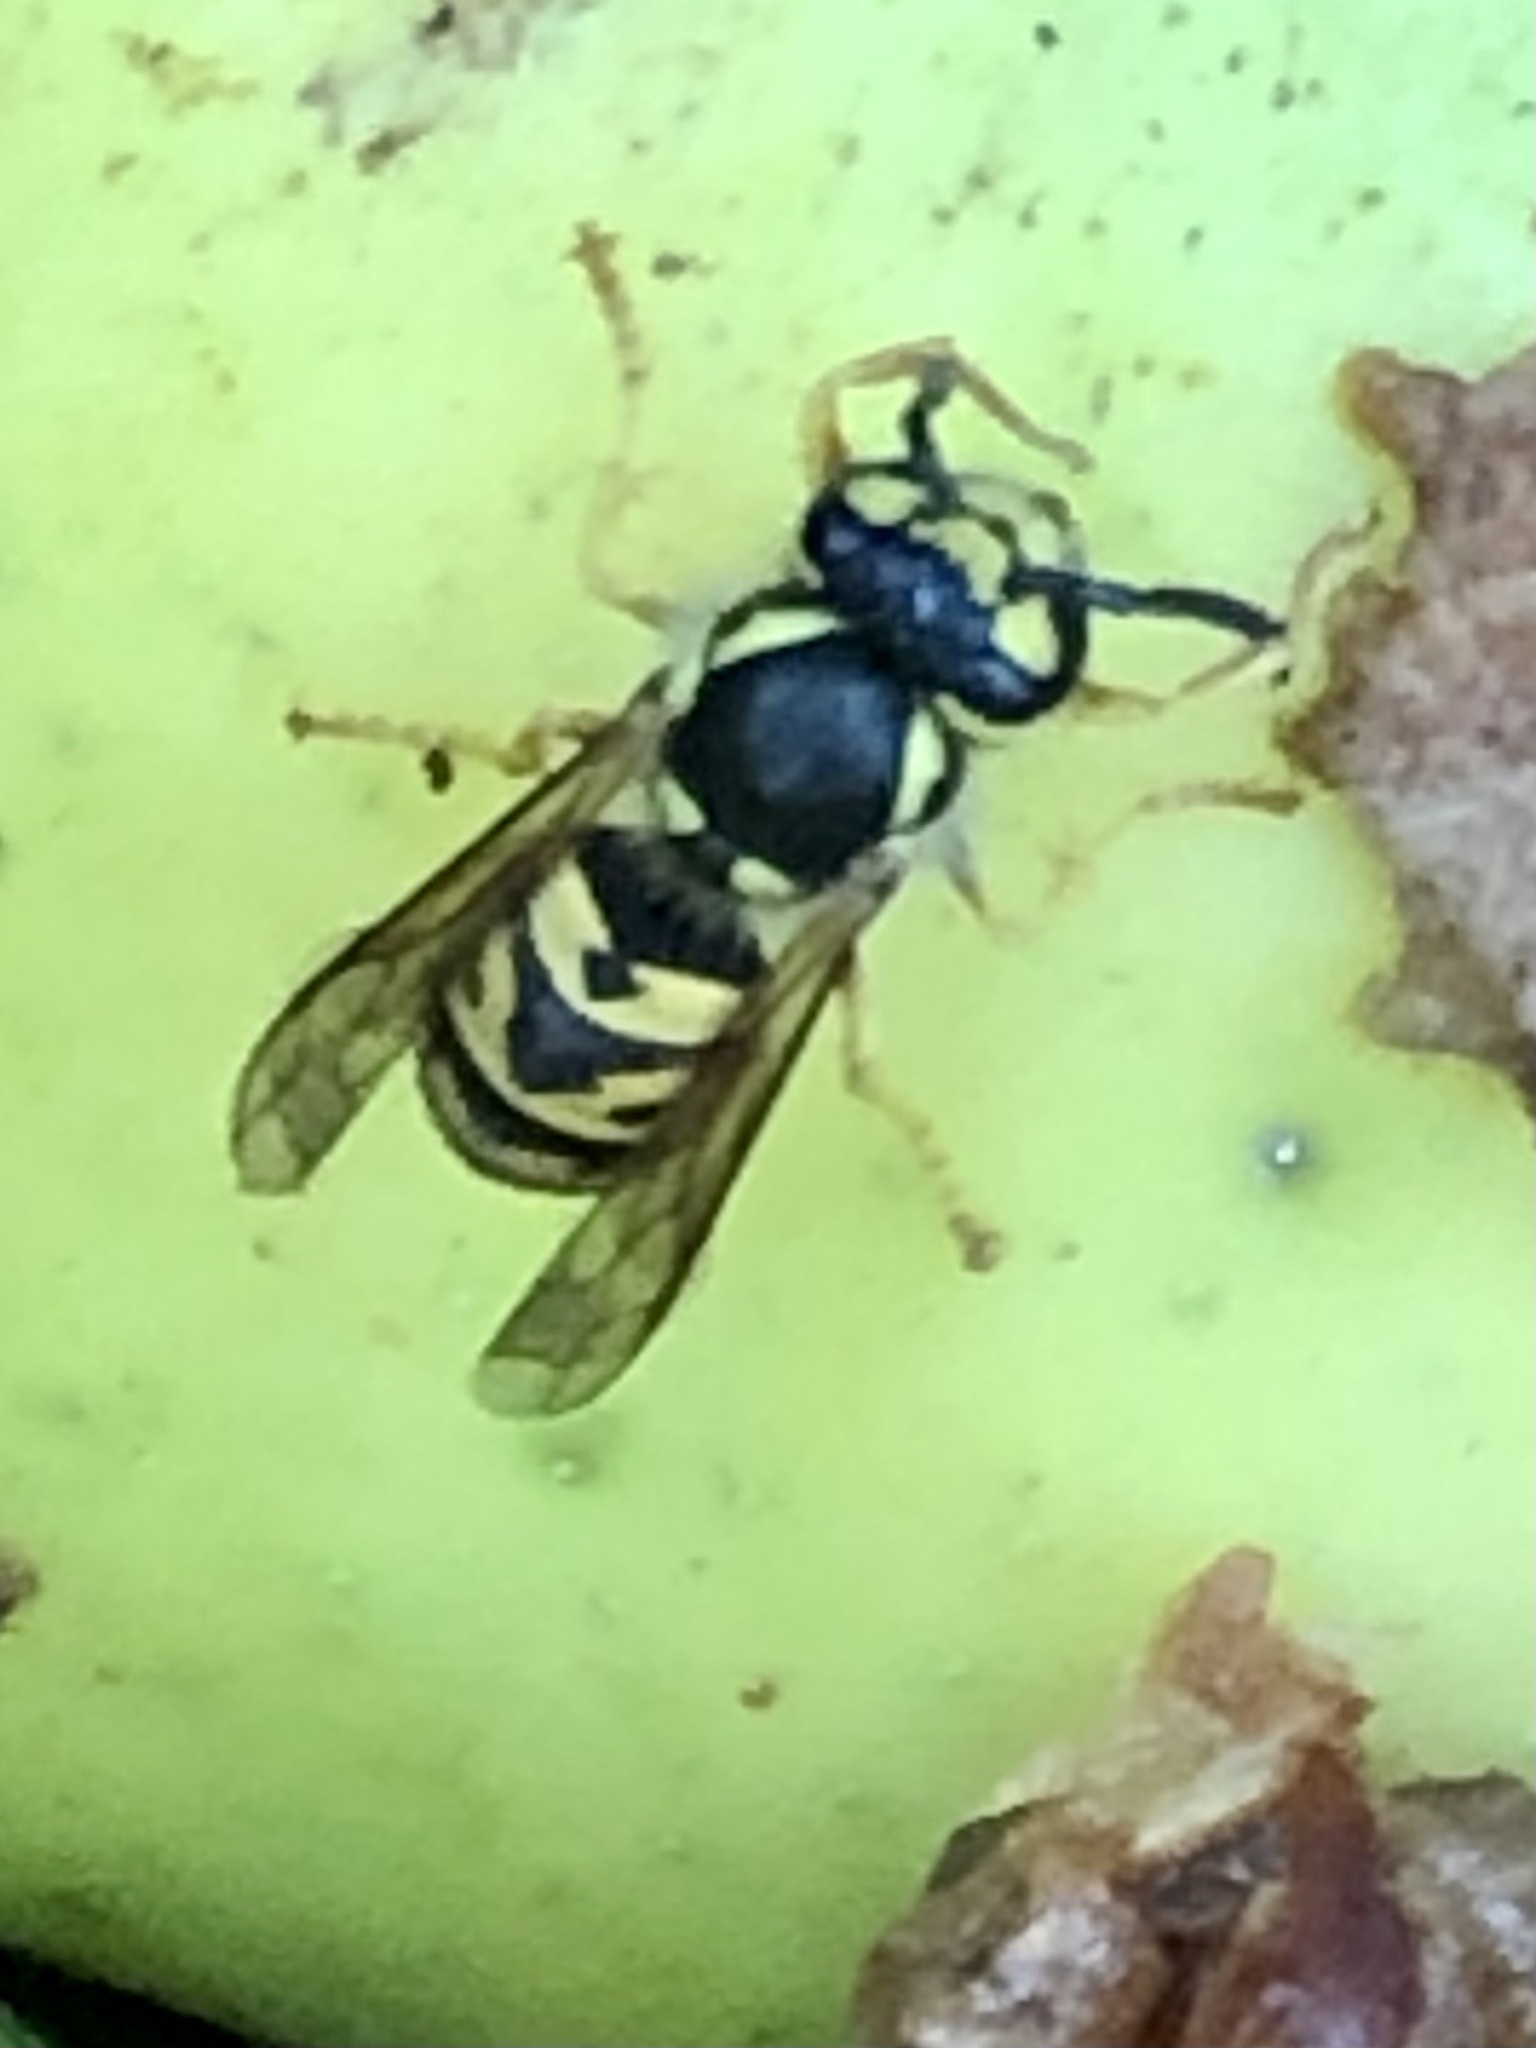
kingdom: Animalia
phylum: Arthropoda
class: Insecta
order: Hymenoptera
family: Vespidae
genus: Vespula
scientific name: Vespula germanica
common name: German wasp
